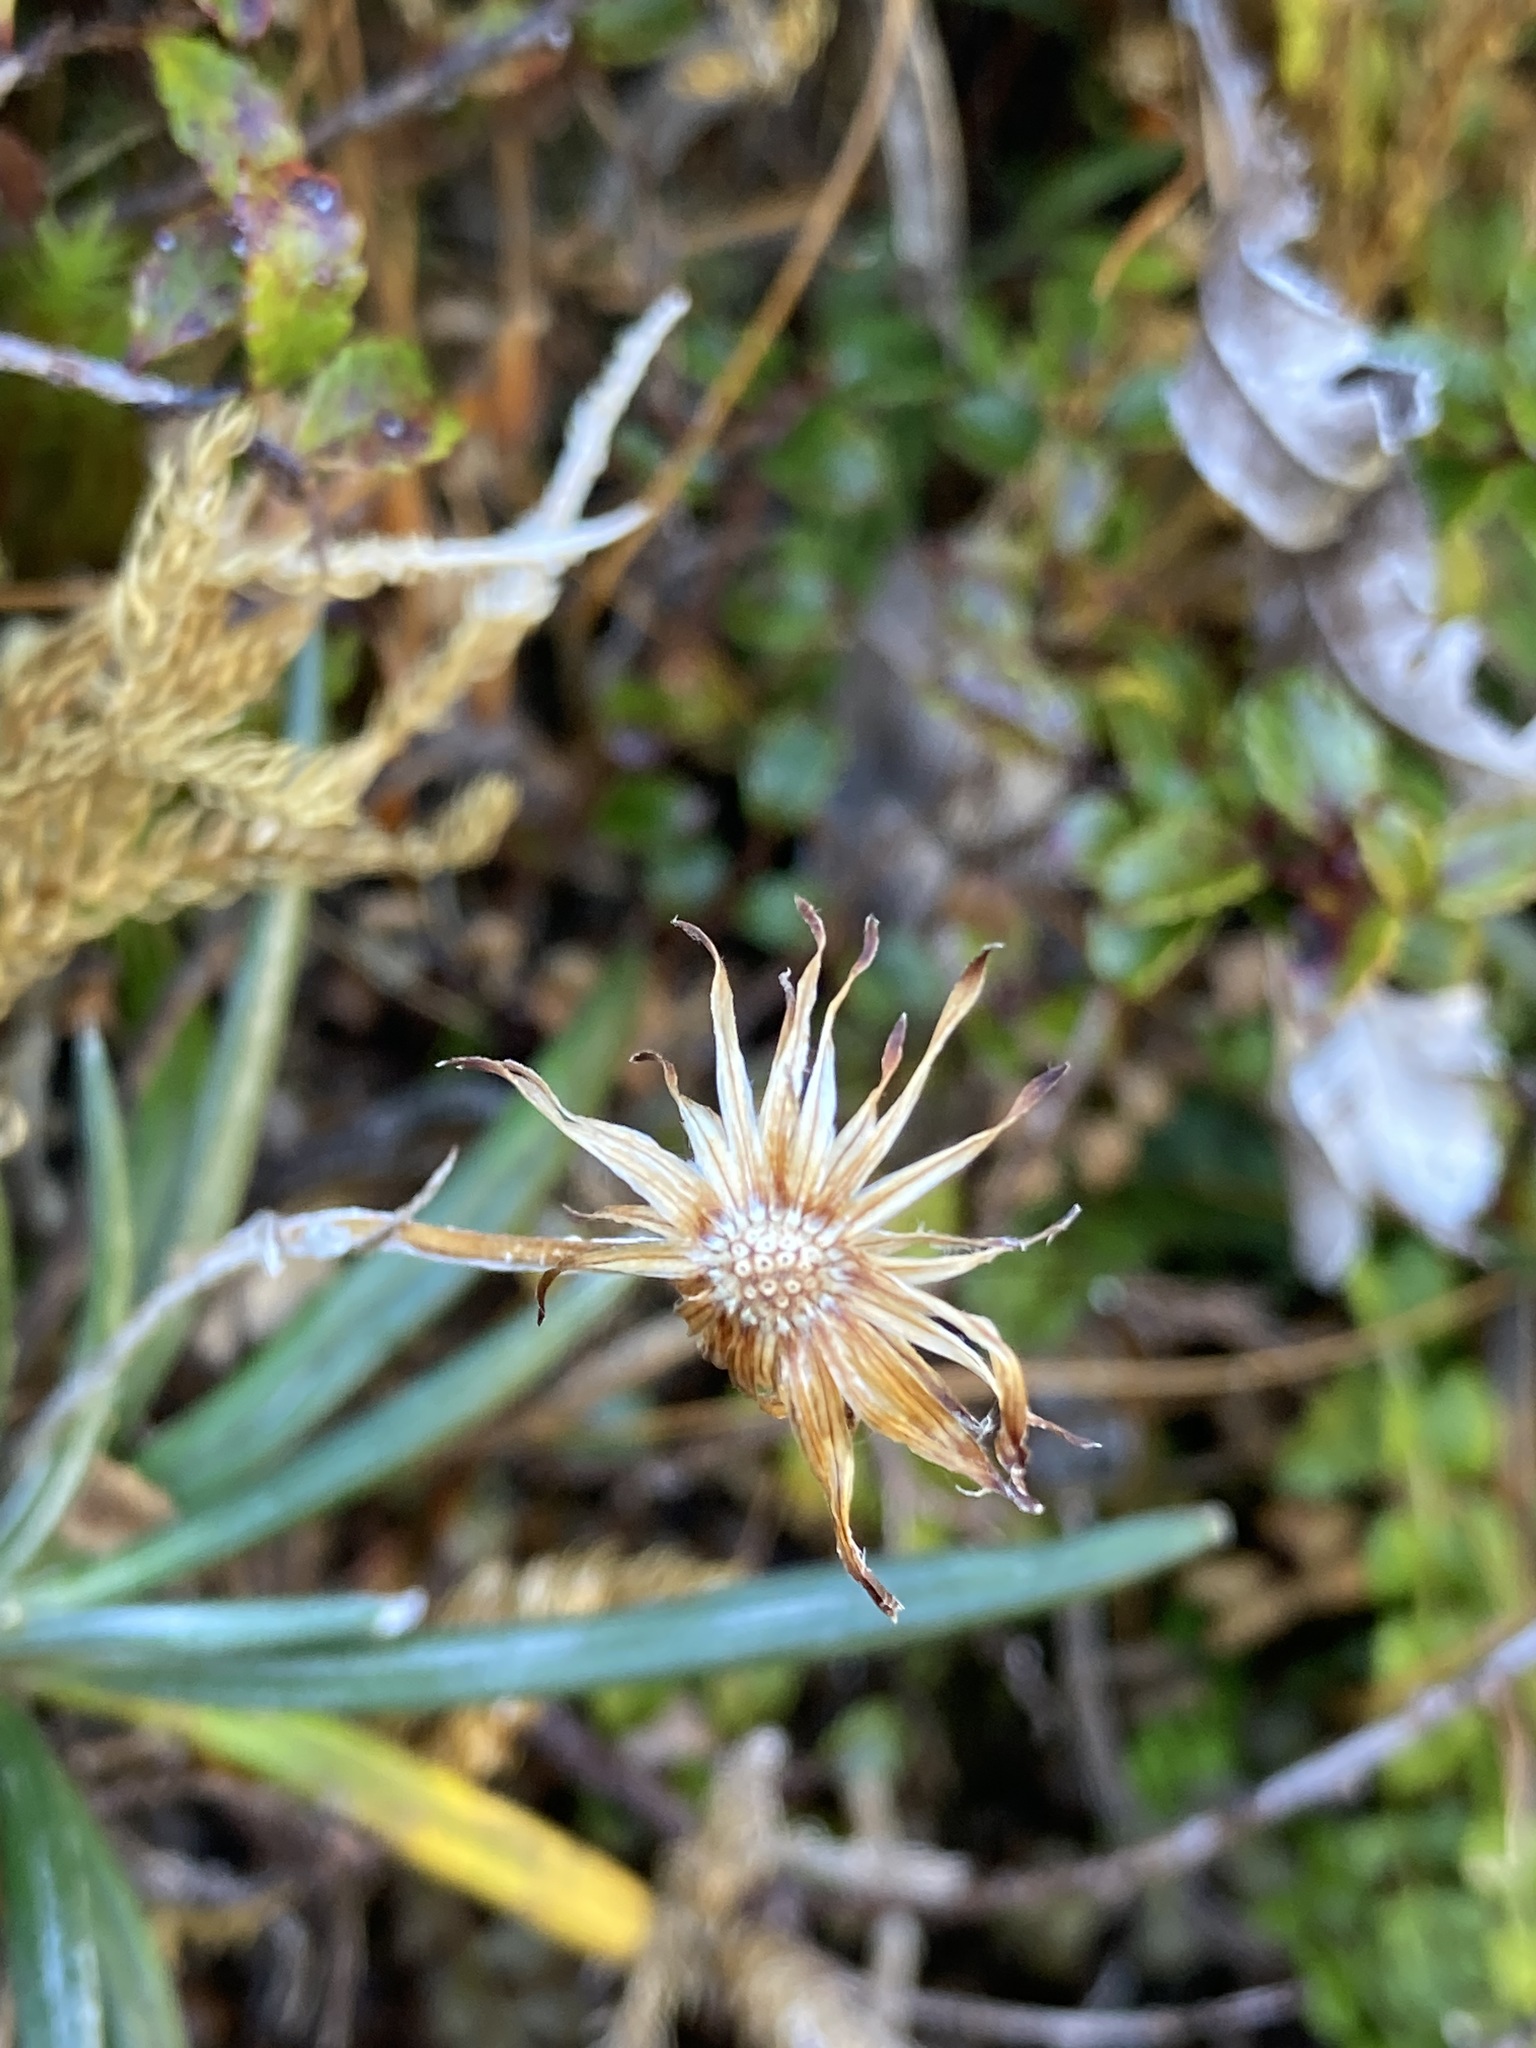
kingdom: Plantae
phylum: Tracheophyta
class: Magnoliopsida
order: Asterales
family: Asteraceae
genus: Celmisia
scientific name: Celmisia major
